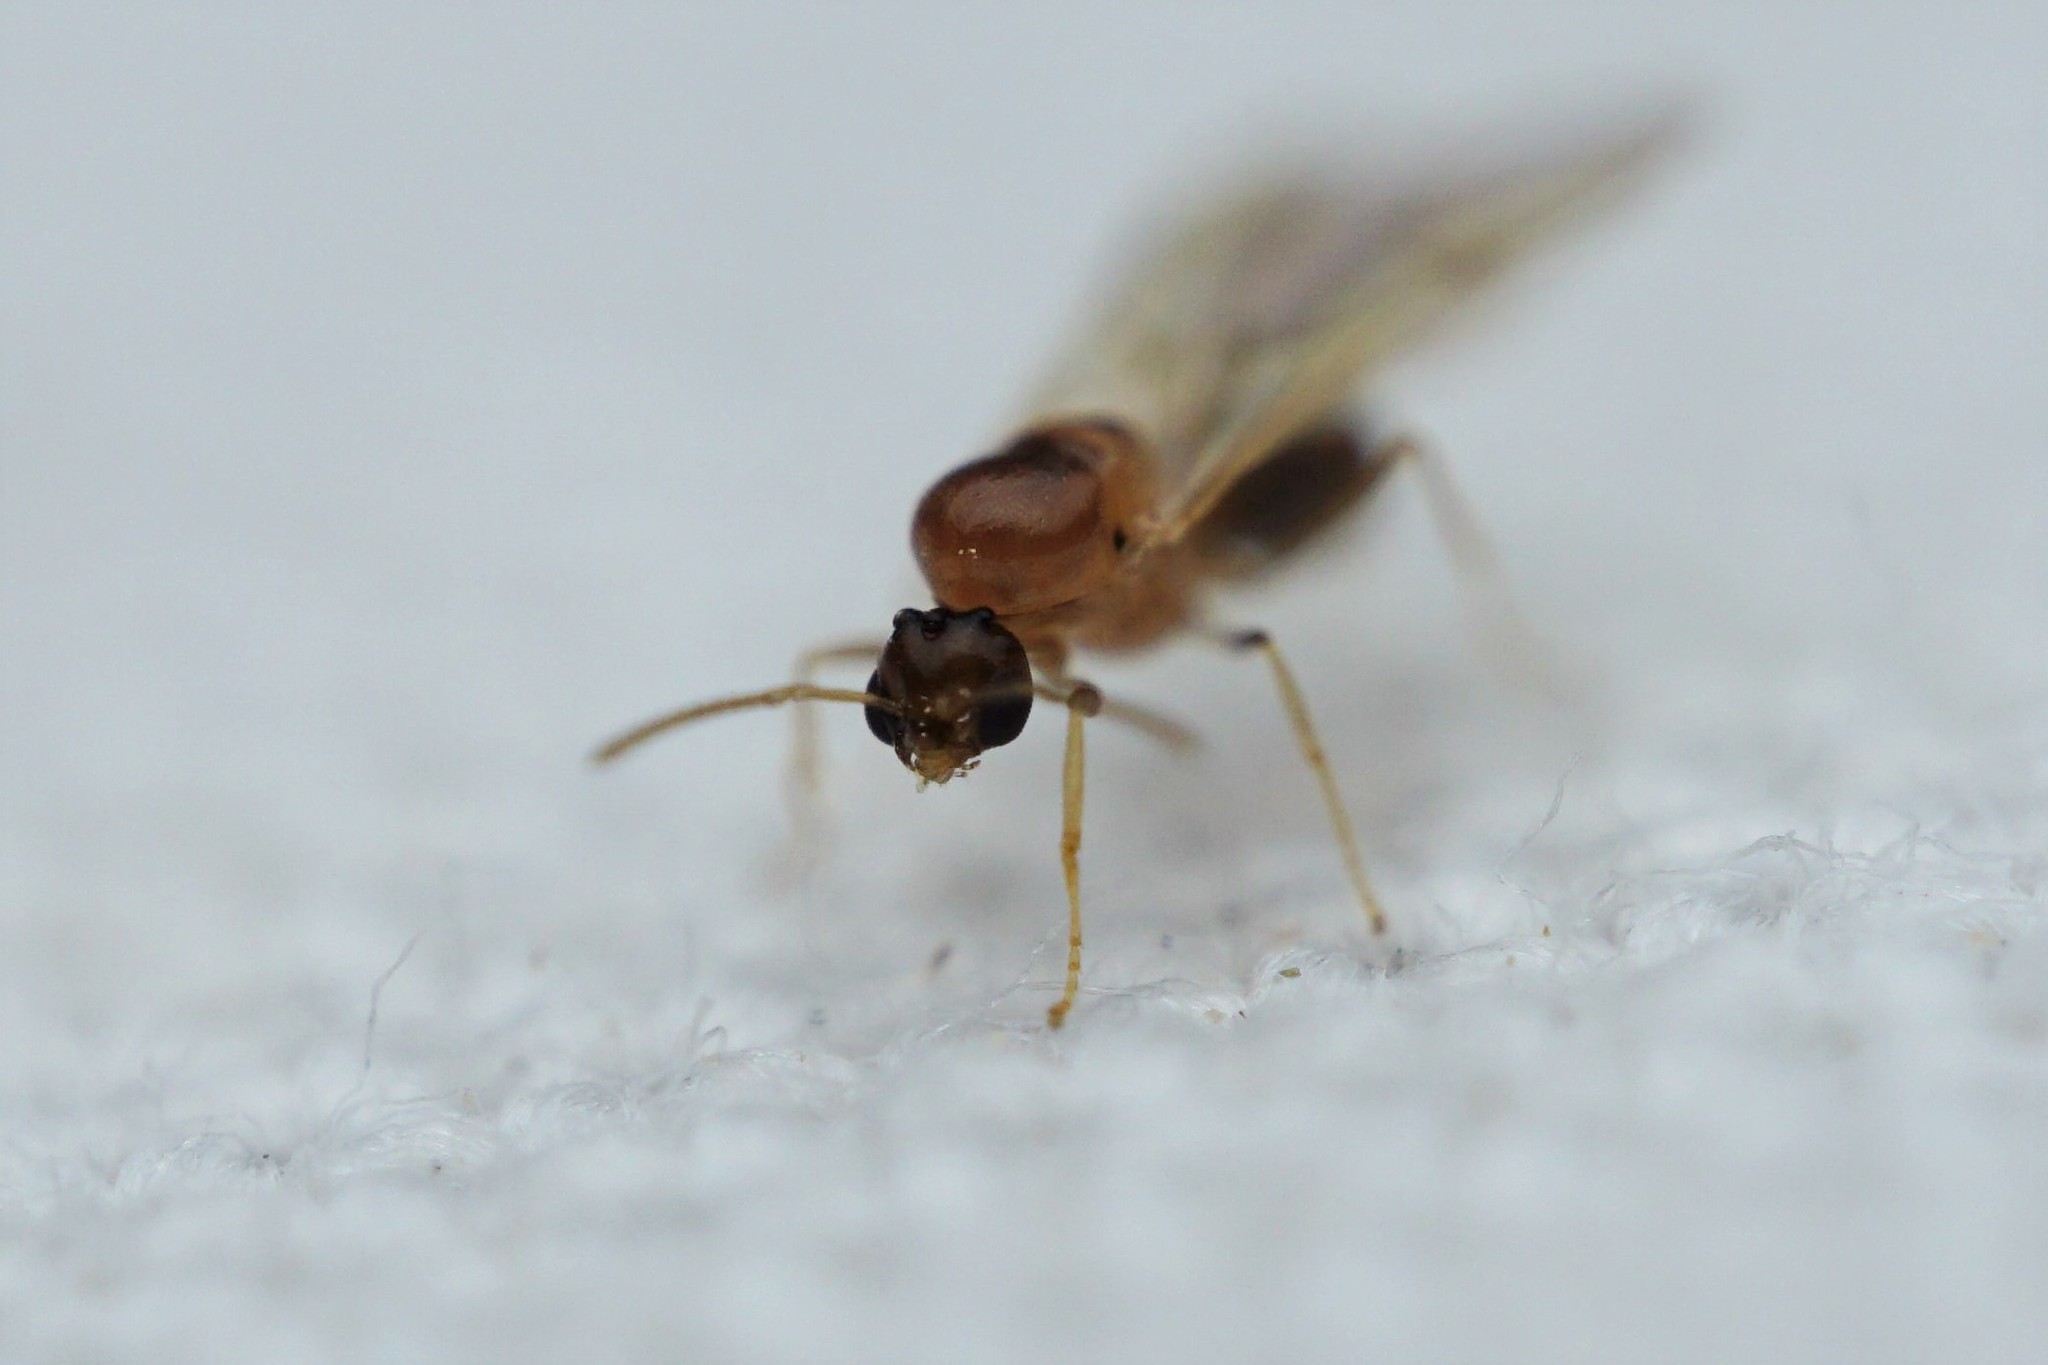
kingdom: Animalia
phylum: Arthropoda
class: Insecta
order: Hymenoptera
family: Formicidae
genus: Brachymyrmex
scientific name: Brachymyrmex patagonicus
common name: Dark rover ant
